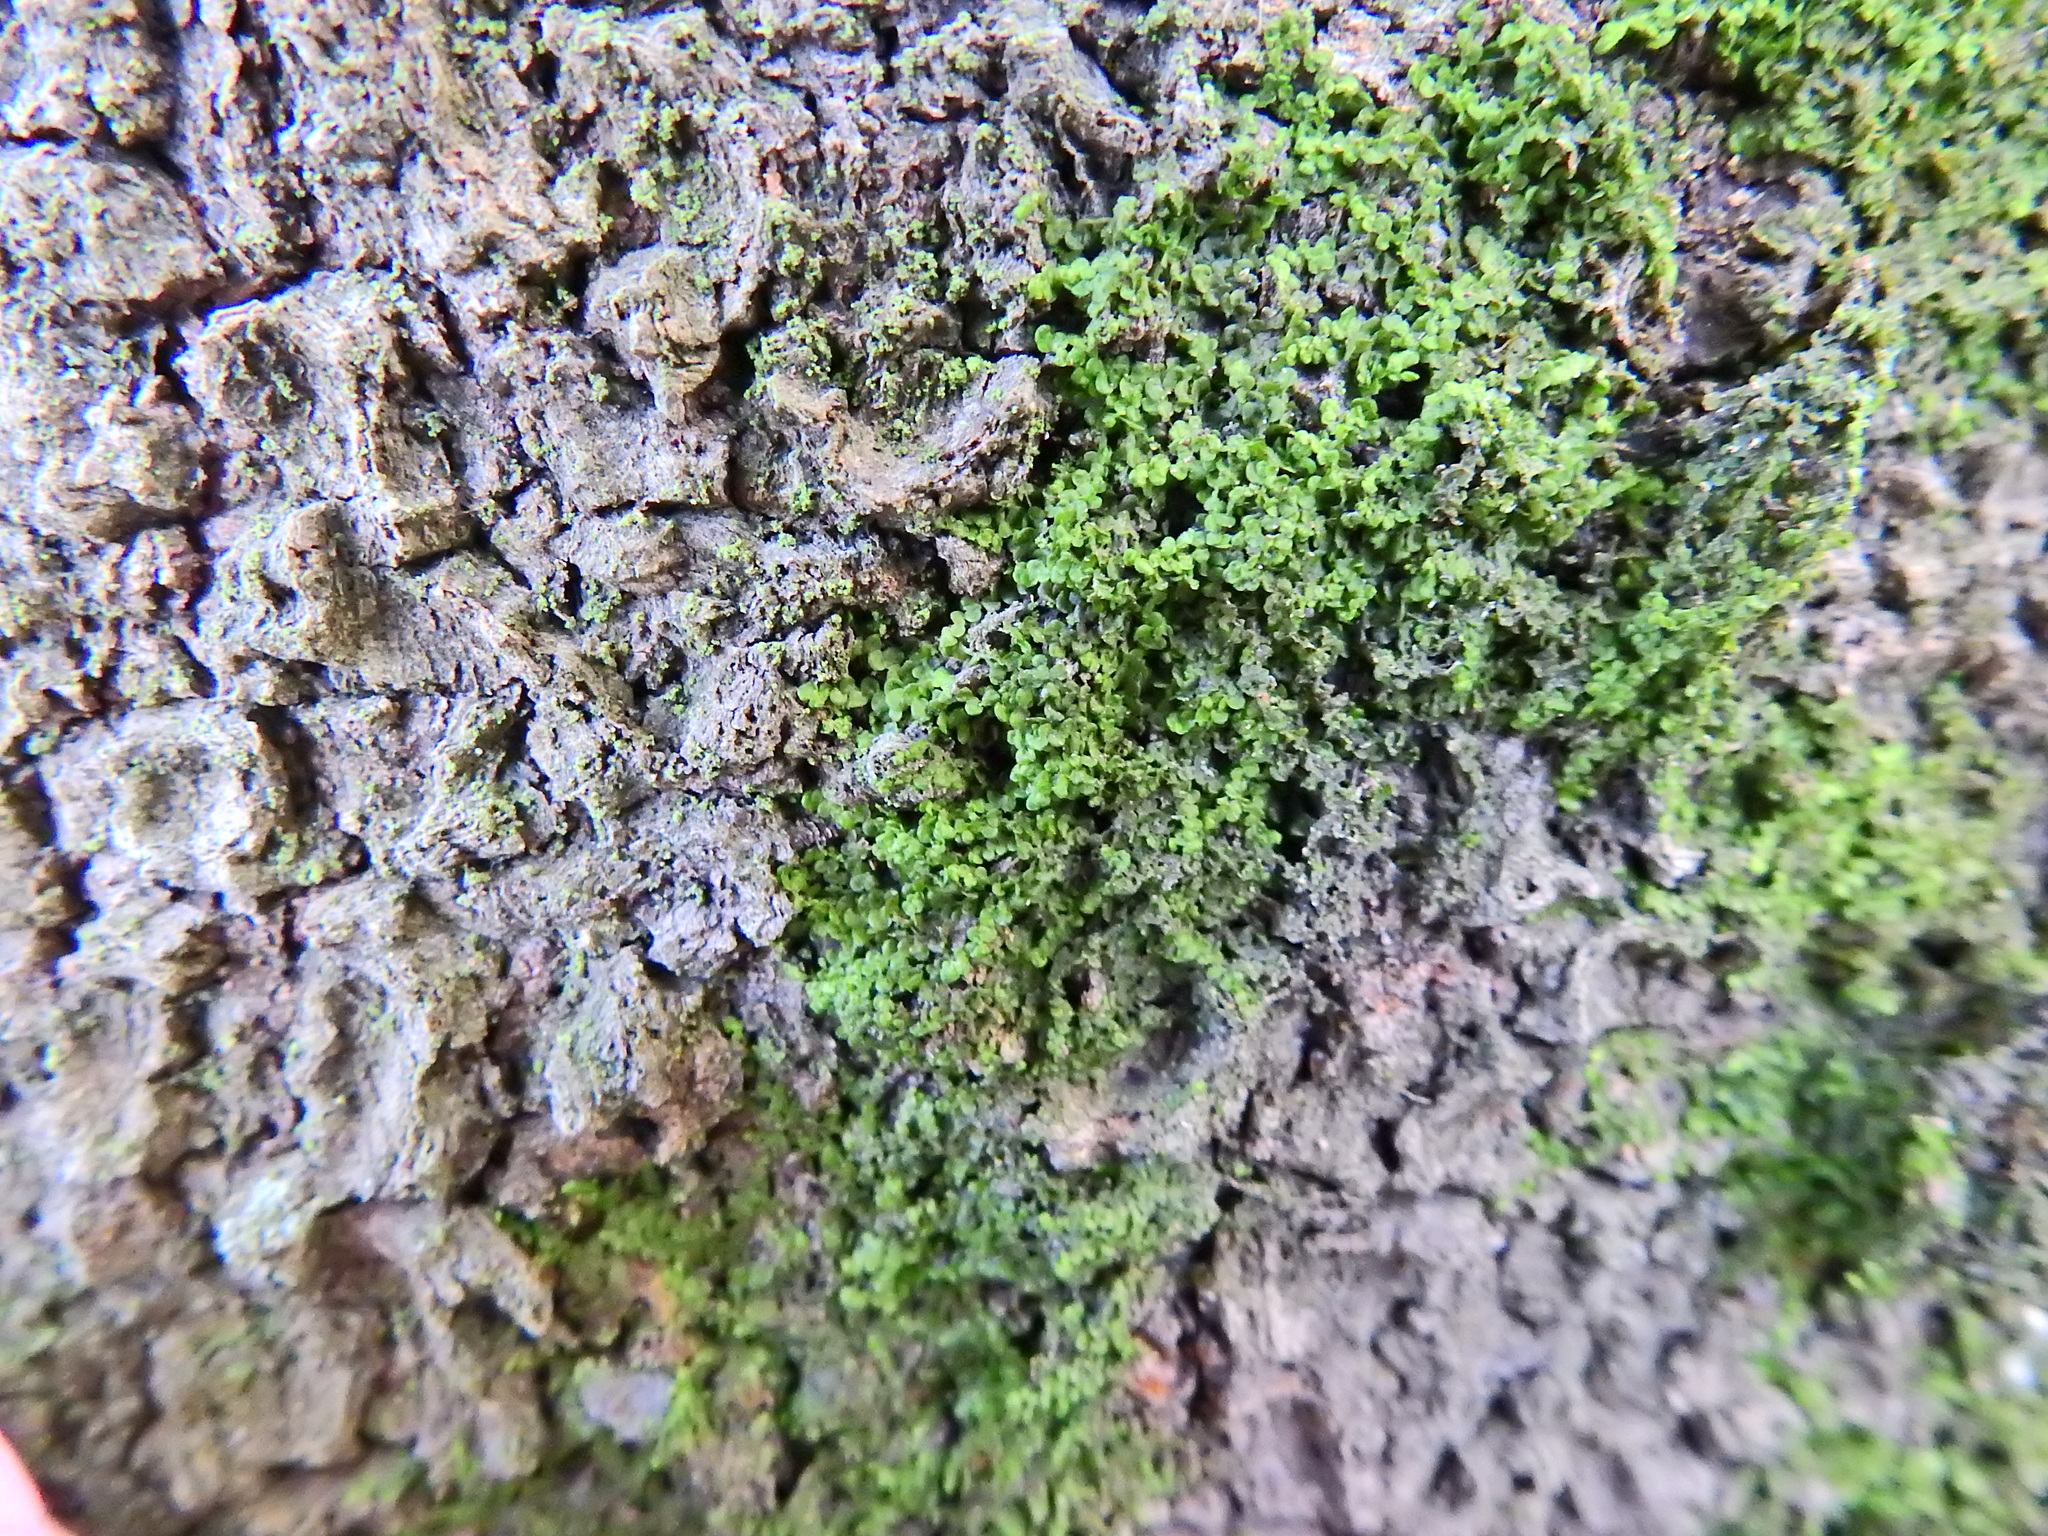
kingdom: Plantae
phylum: Marchantiophyta
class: Jungermanniopsida
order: Porellales
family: Frullaniaceae
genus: Frullania
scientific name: Frullania dilatata
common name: Dilated scalewort
